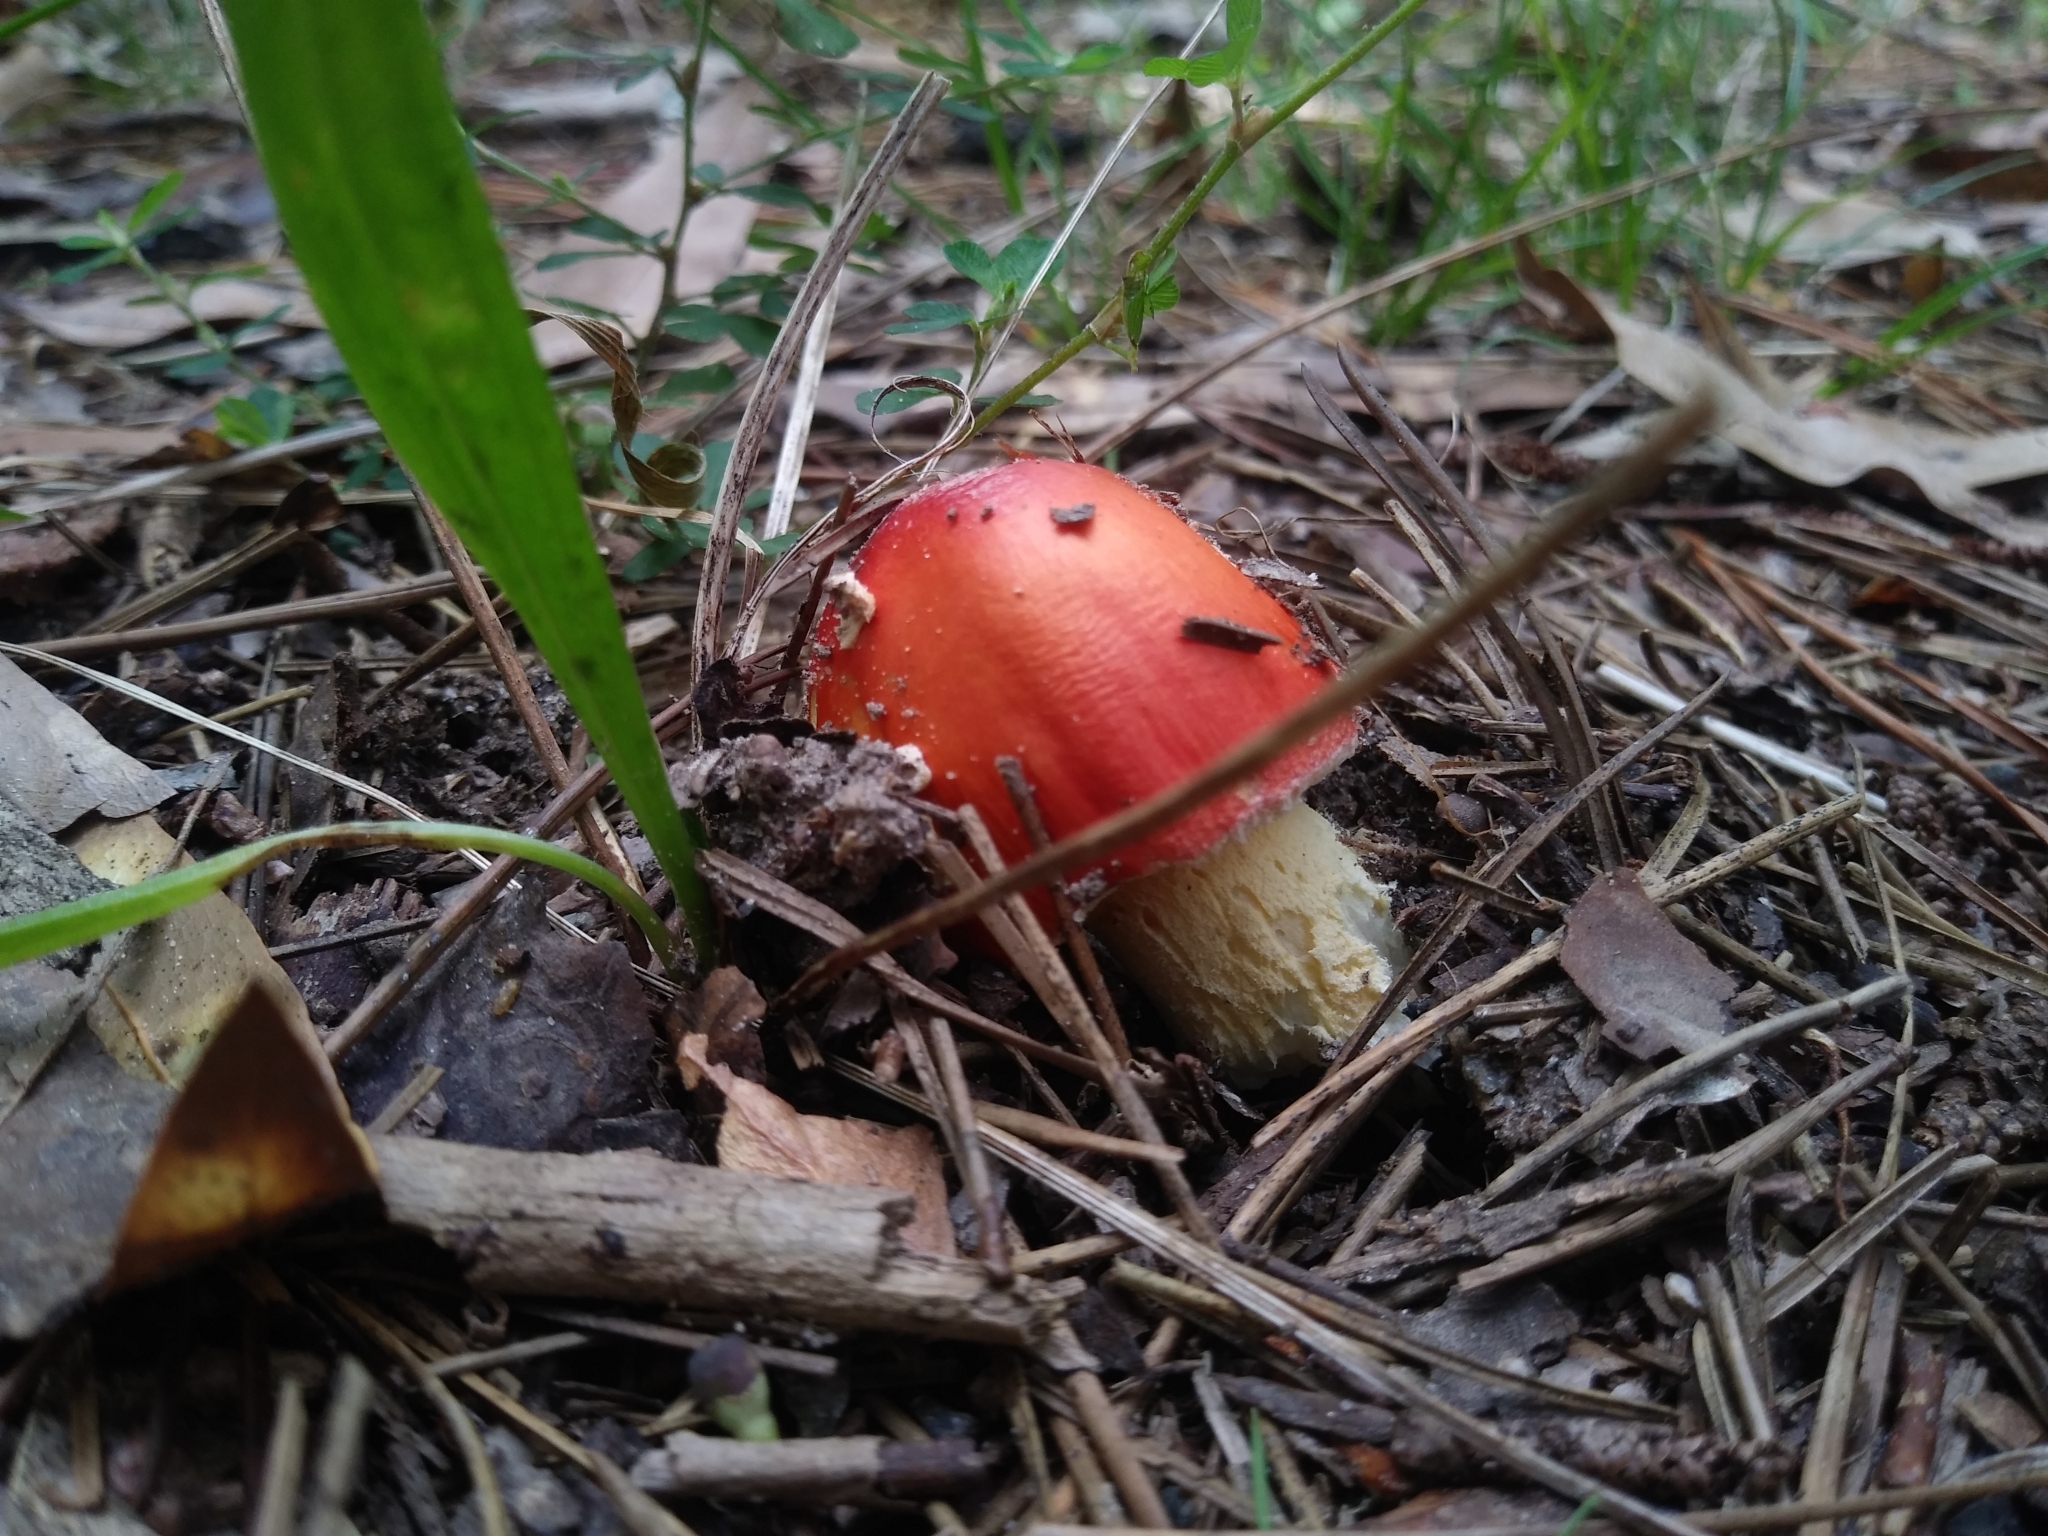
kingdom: Fungi
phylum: Basidiomycota
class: Agaricomycetes
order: Agaricales
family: Amanitaceae
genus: Amanita
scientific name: Amanita parcivolvata
